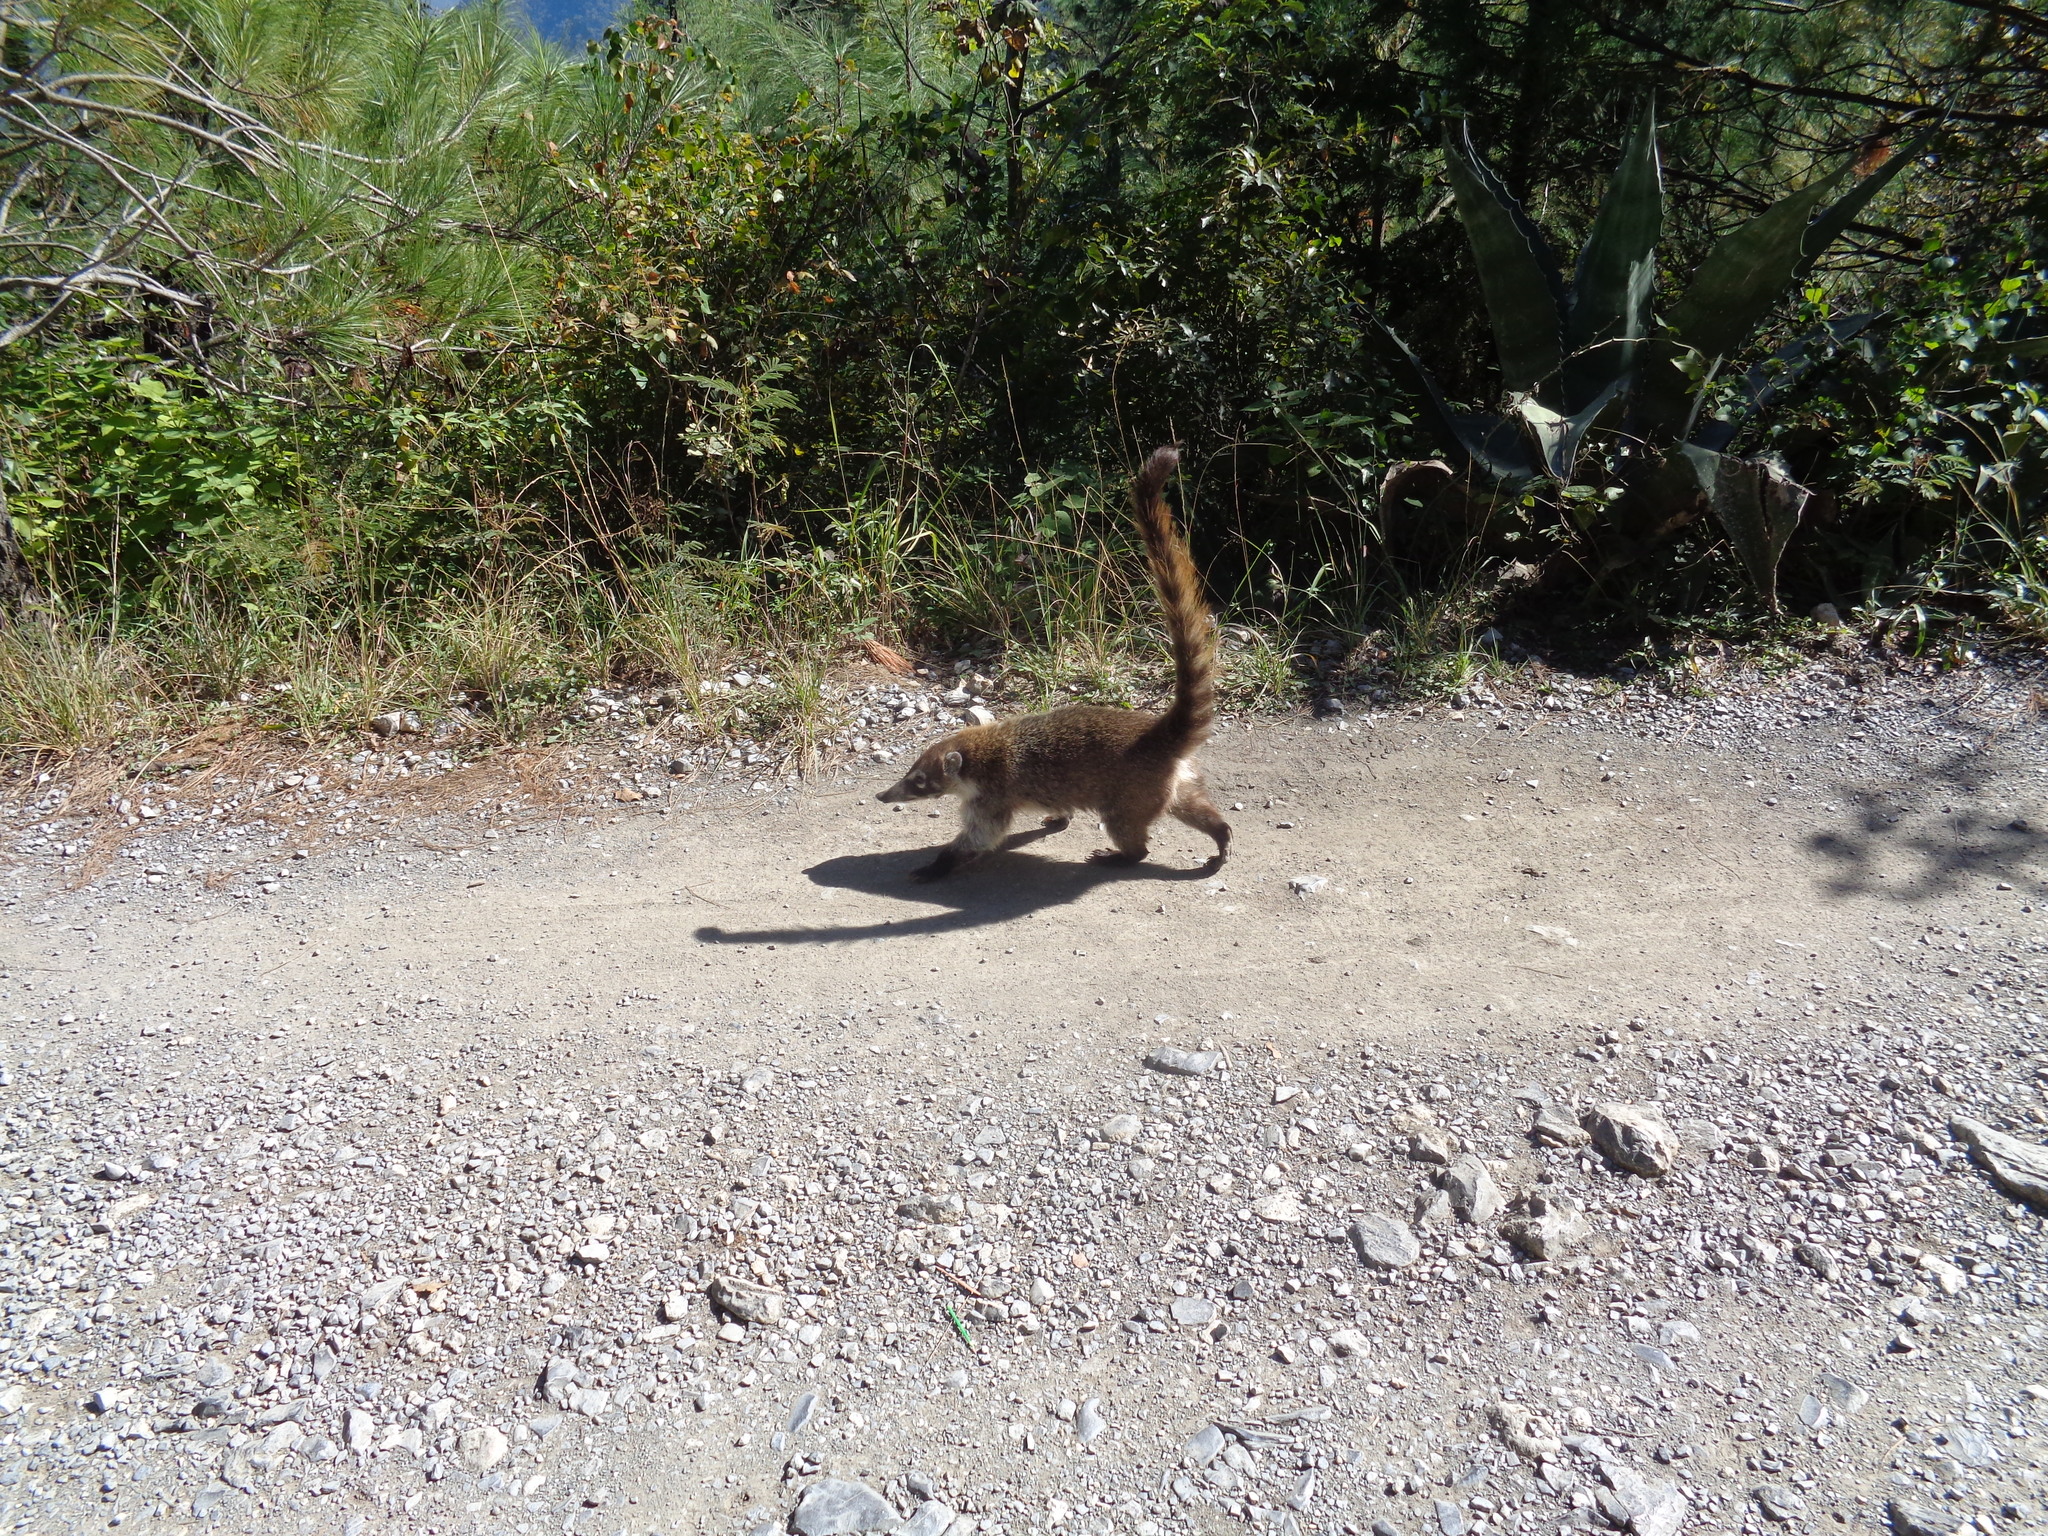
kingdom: Animalia
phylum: Chordata
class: Mammalia
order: Carnivora
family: Procyonidae
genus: Nasua
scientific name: Nasua narica
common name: White-nosed coati
